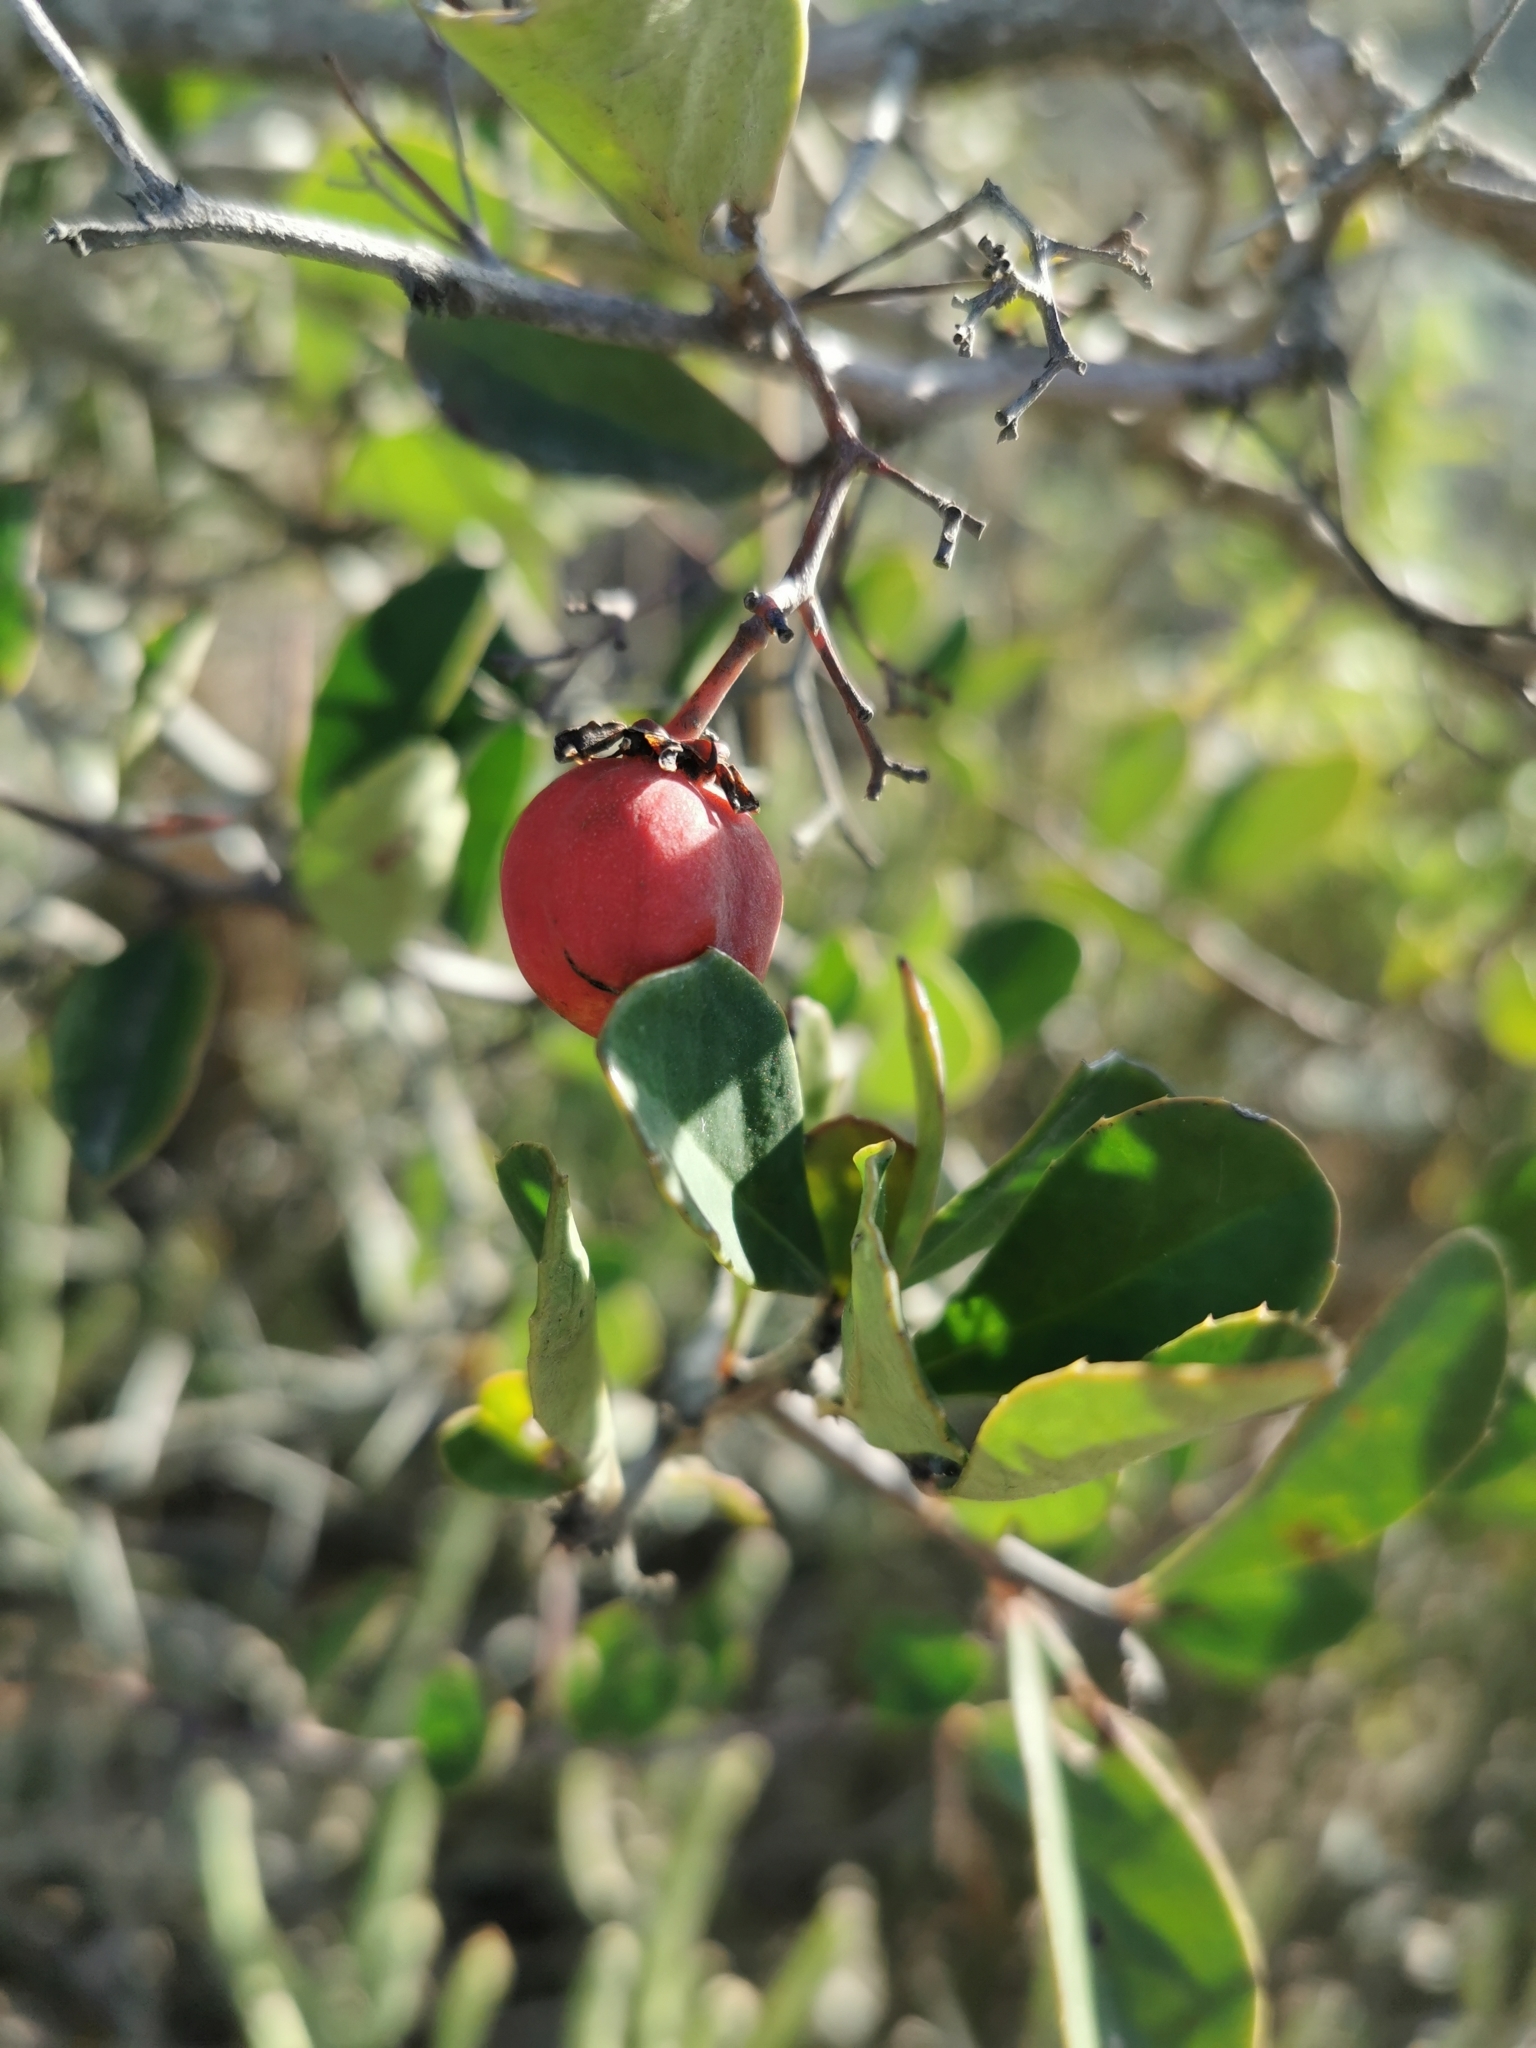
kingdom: Plantae
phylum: Tracheophyta
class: Magnoliopsida
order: Celastrales
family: Celastraceae
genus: Putterlickia
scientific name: Putterlickia pyracantha
